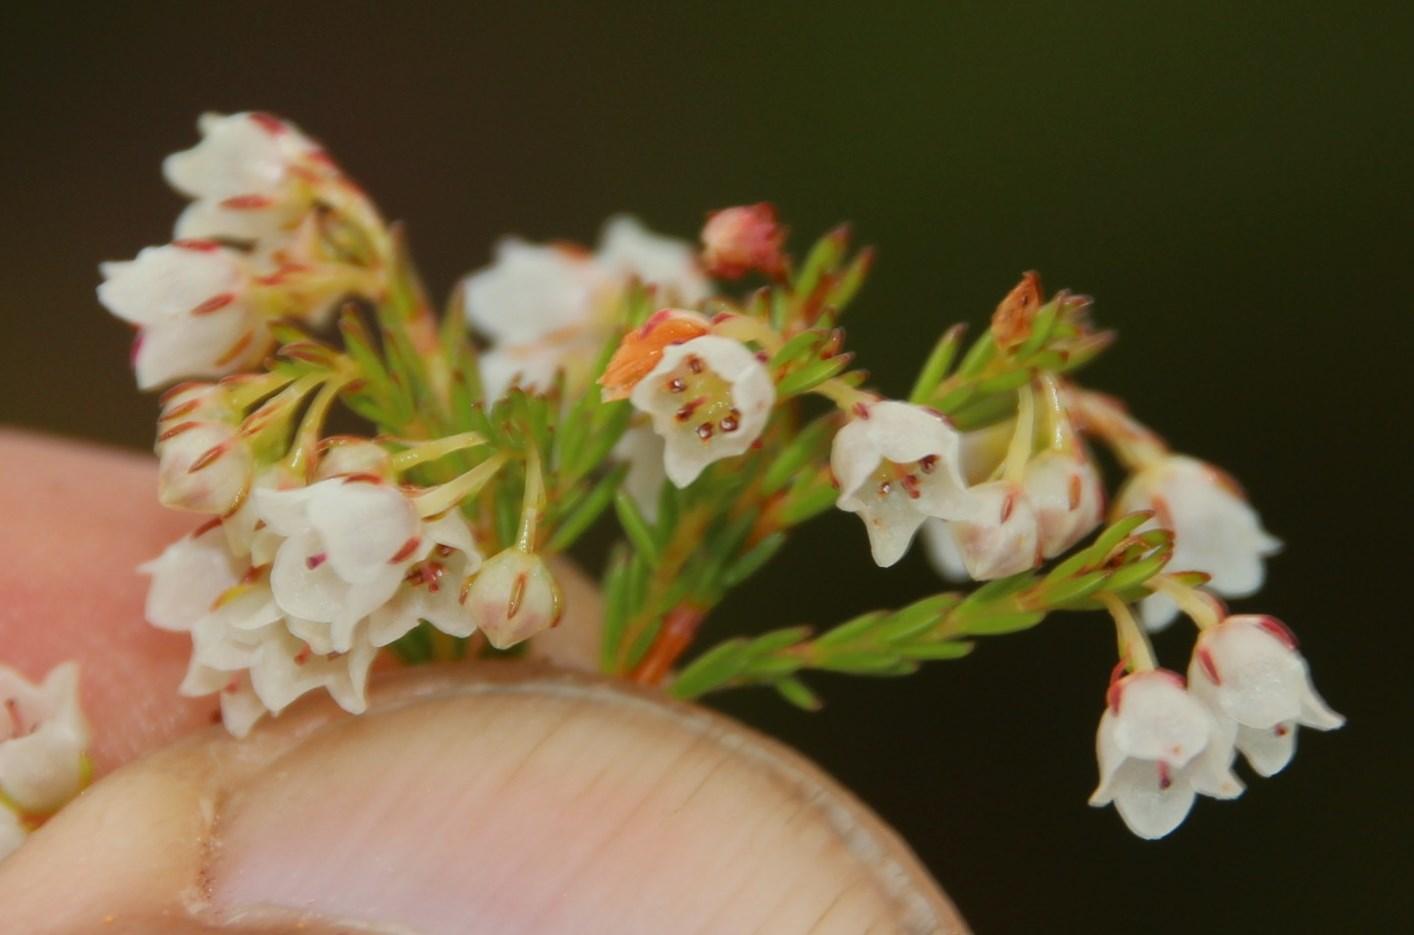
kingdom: Plantae
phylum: Tracheophyta
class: Magnoliopsida
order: Ericales
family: Ericaceae
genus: Erica
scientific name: Erica capensis
